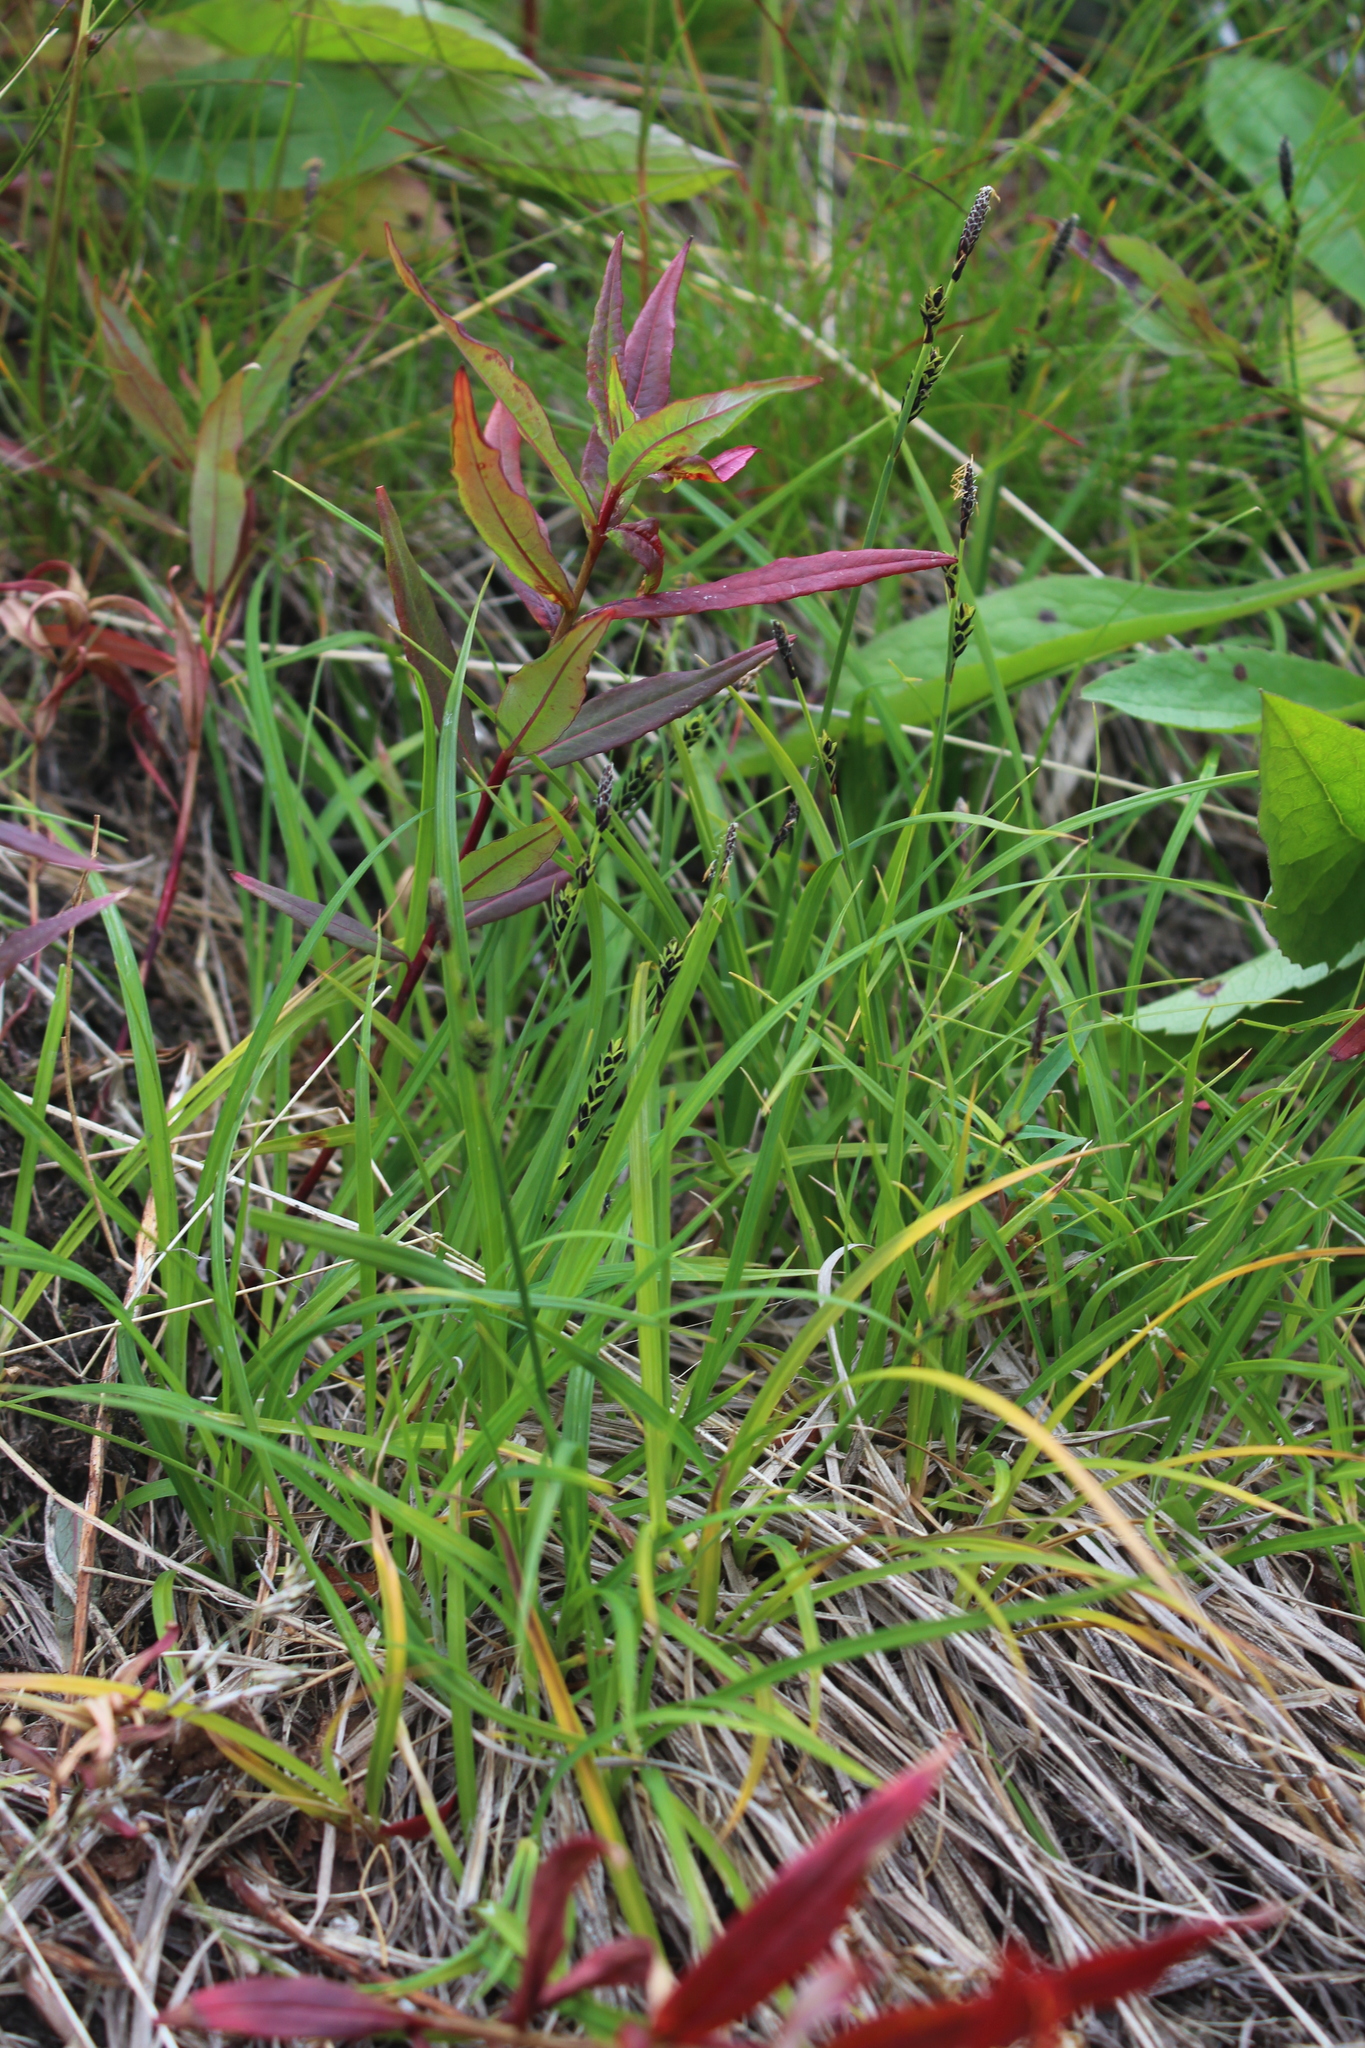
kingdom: Plantae
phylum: Tracheophyta
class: Liliopsida
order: Poales
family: Cyperaceae
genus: Carex
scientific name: Carex bigelowii
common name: Stiff sedge
